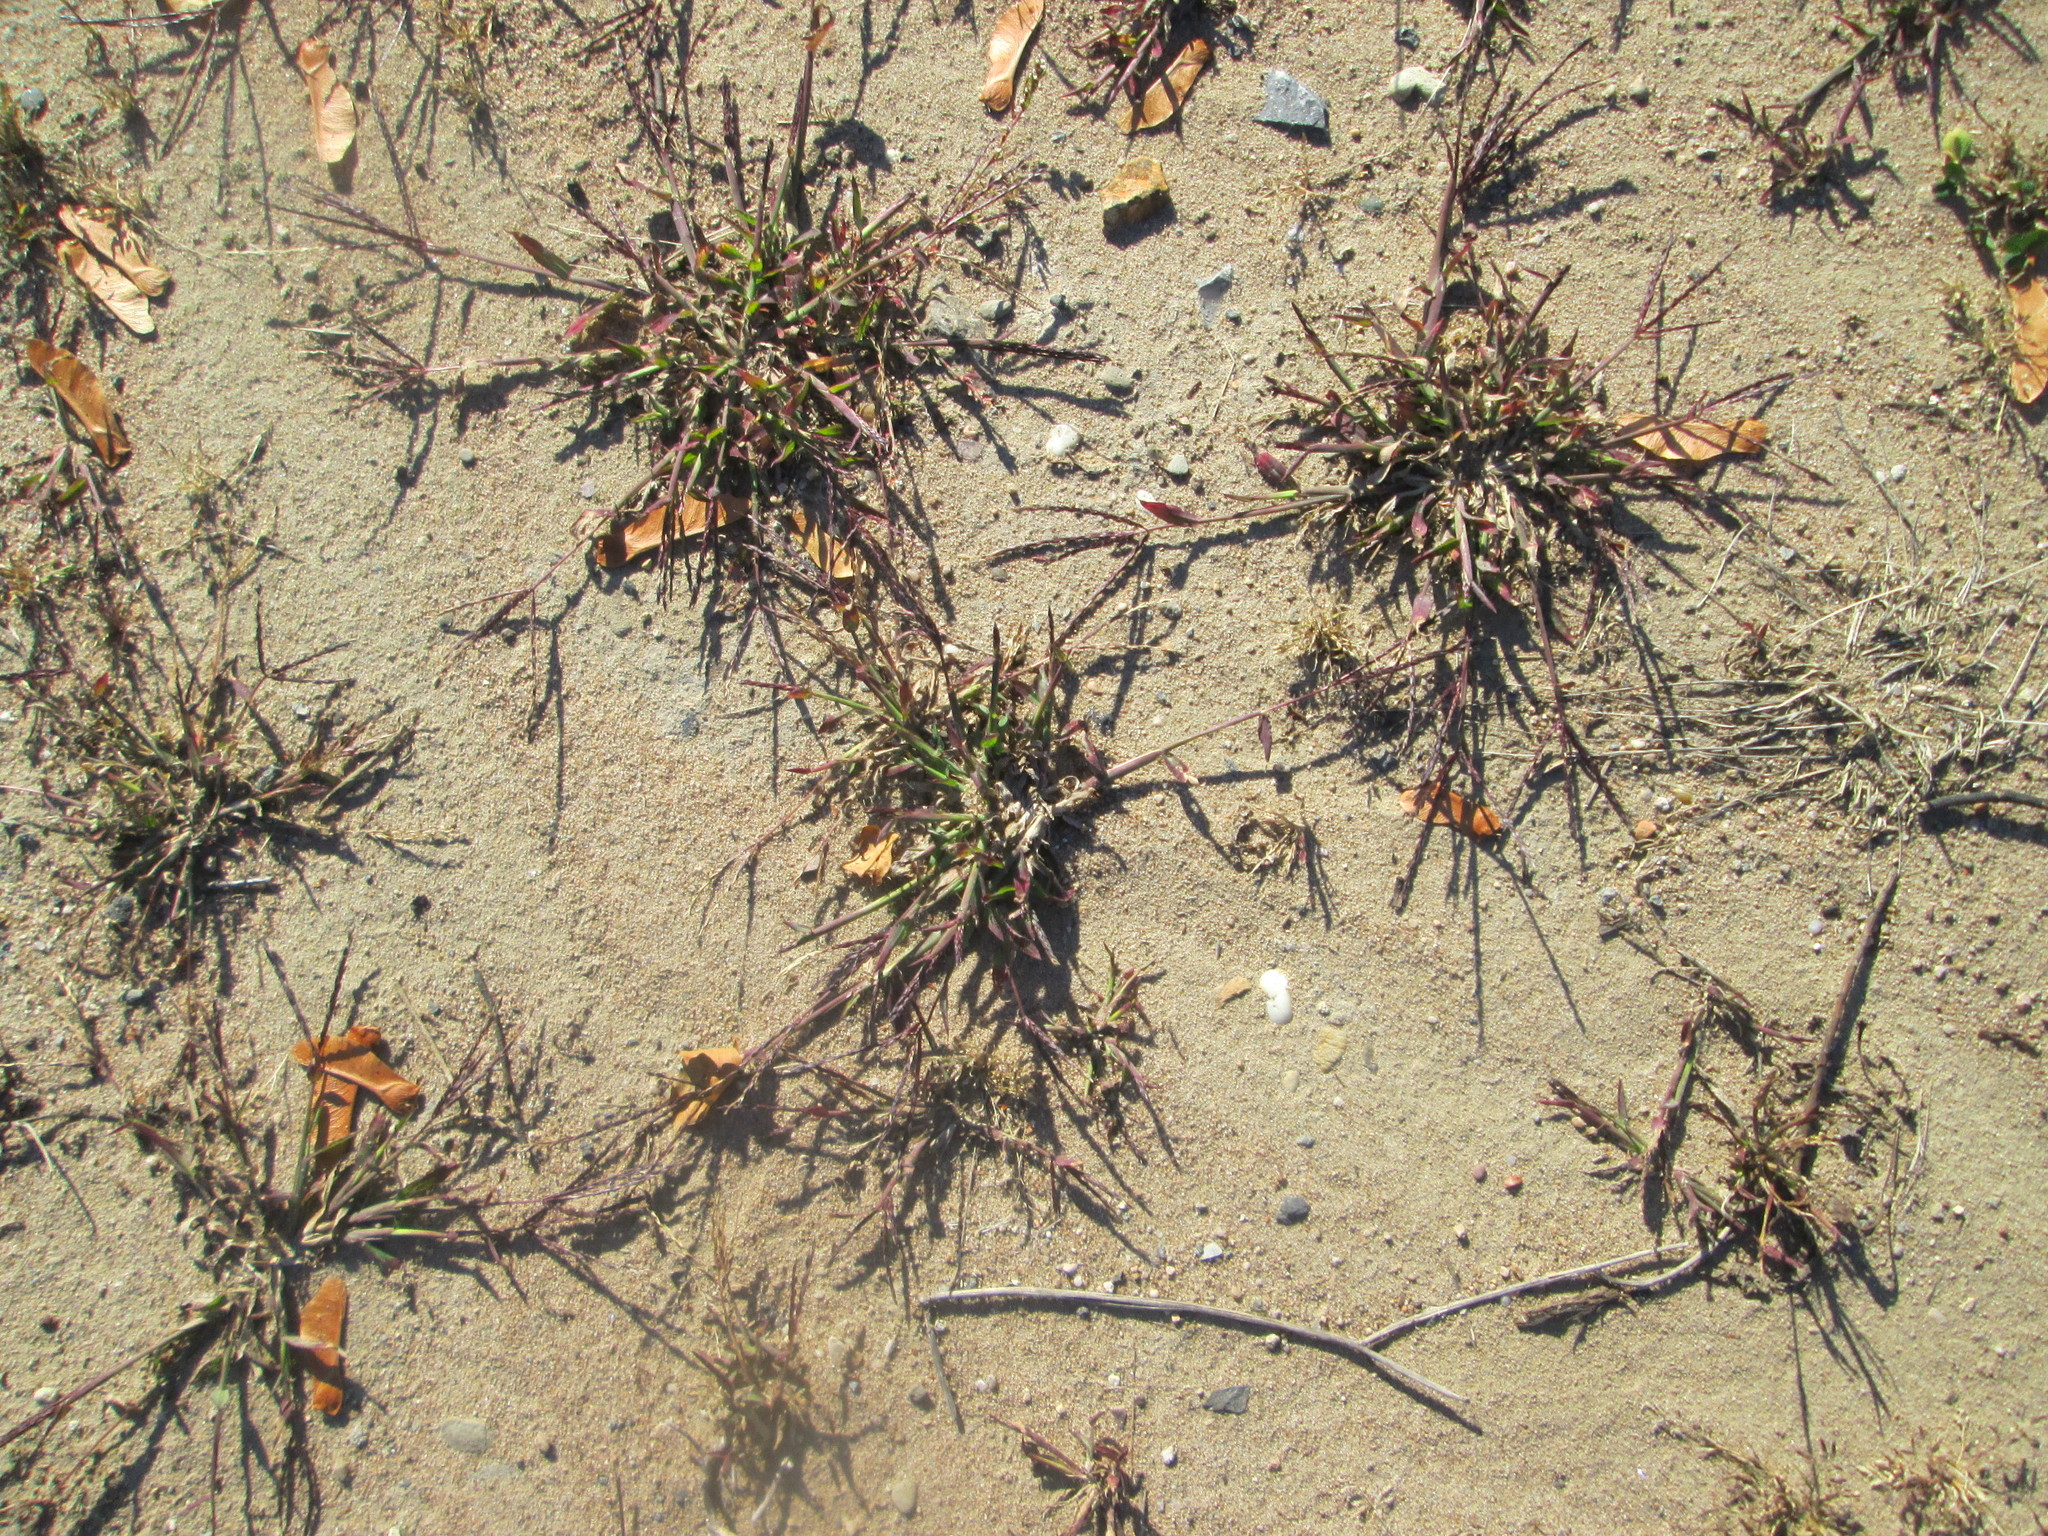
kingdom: Plantae
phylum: Tracheophyta
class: Liliopsida
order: Poales
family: Poaceae
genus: Digitaria
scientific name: Digitaria sanguinalis
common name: Hairy crabgrass
